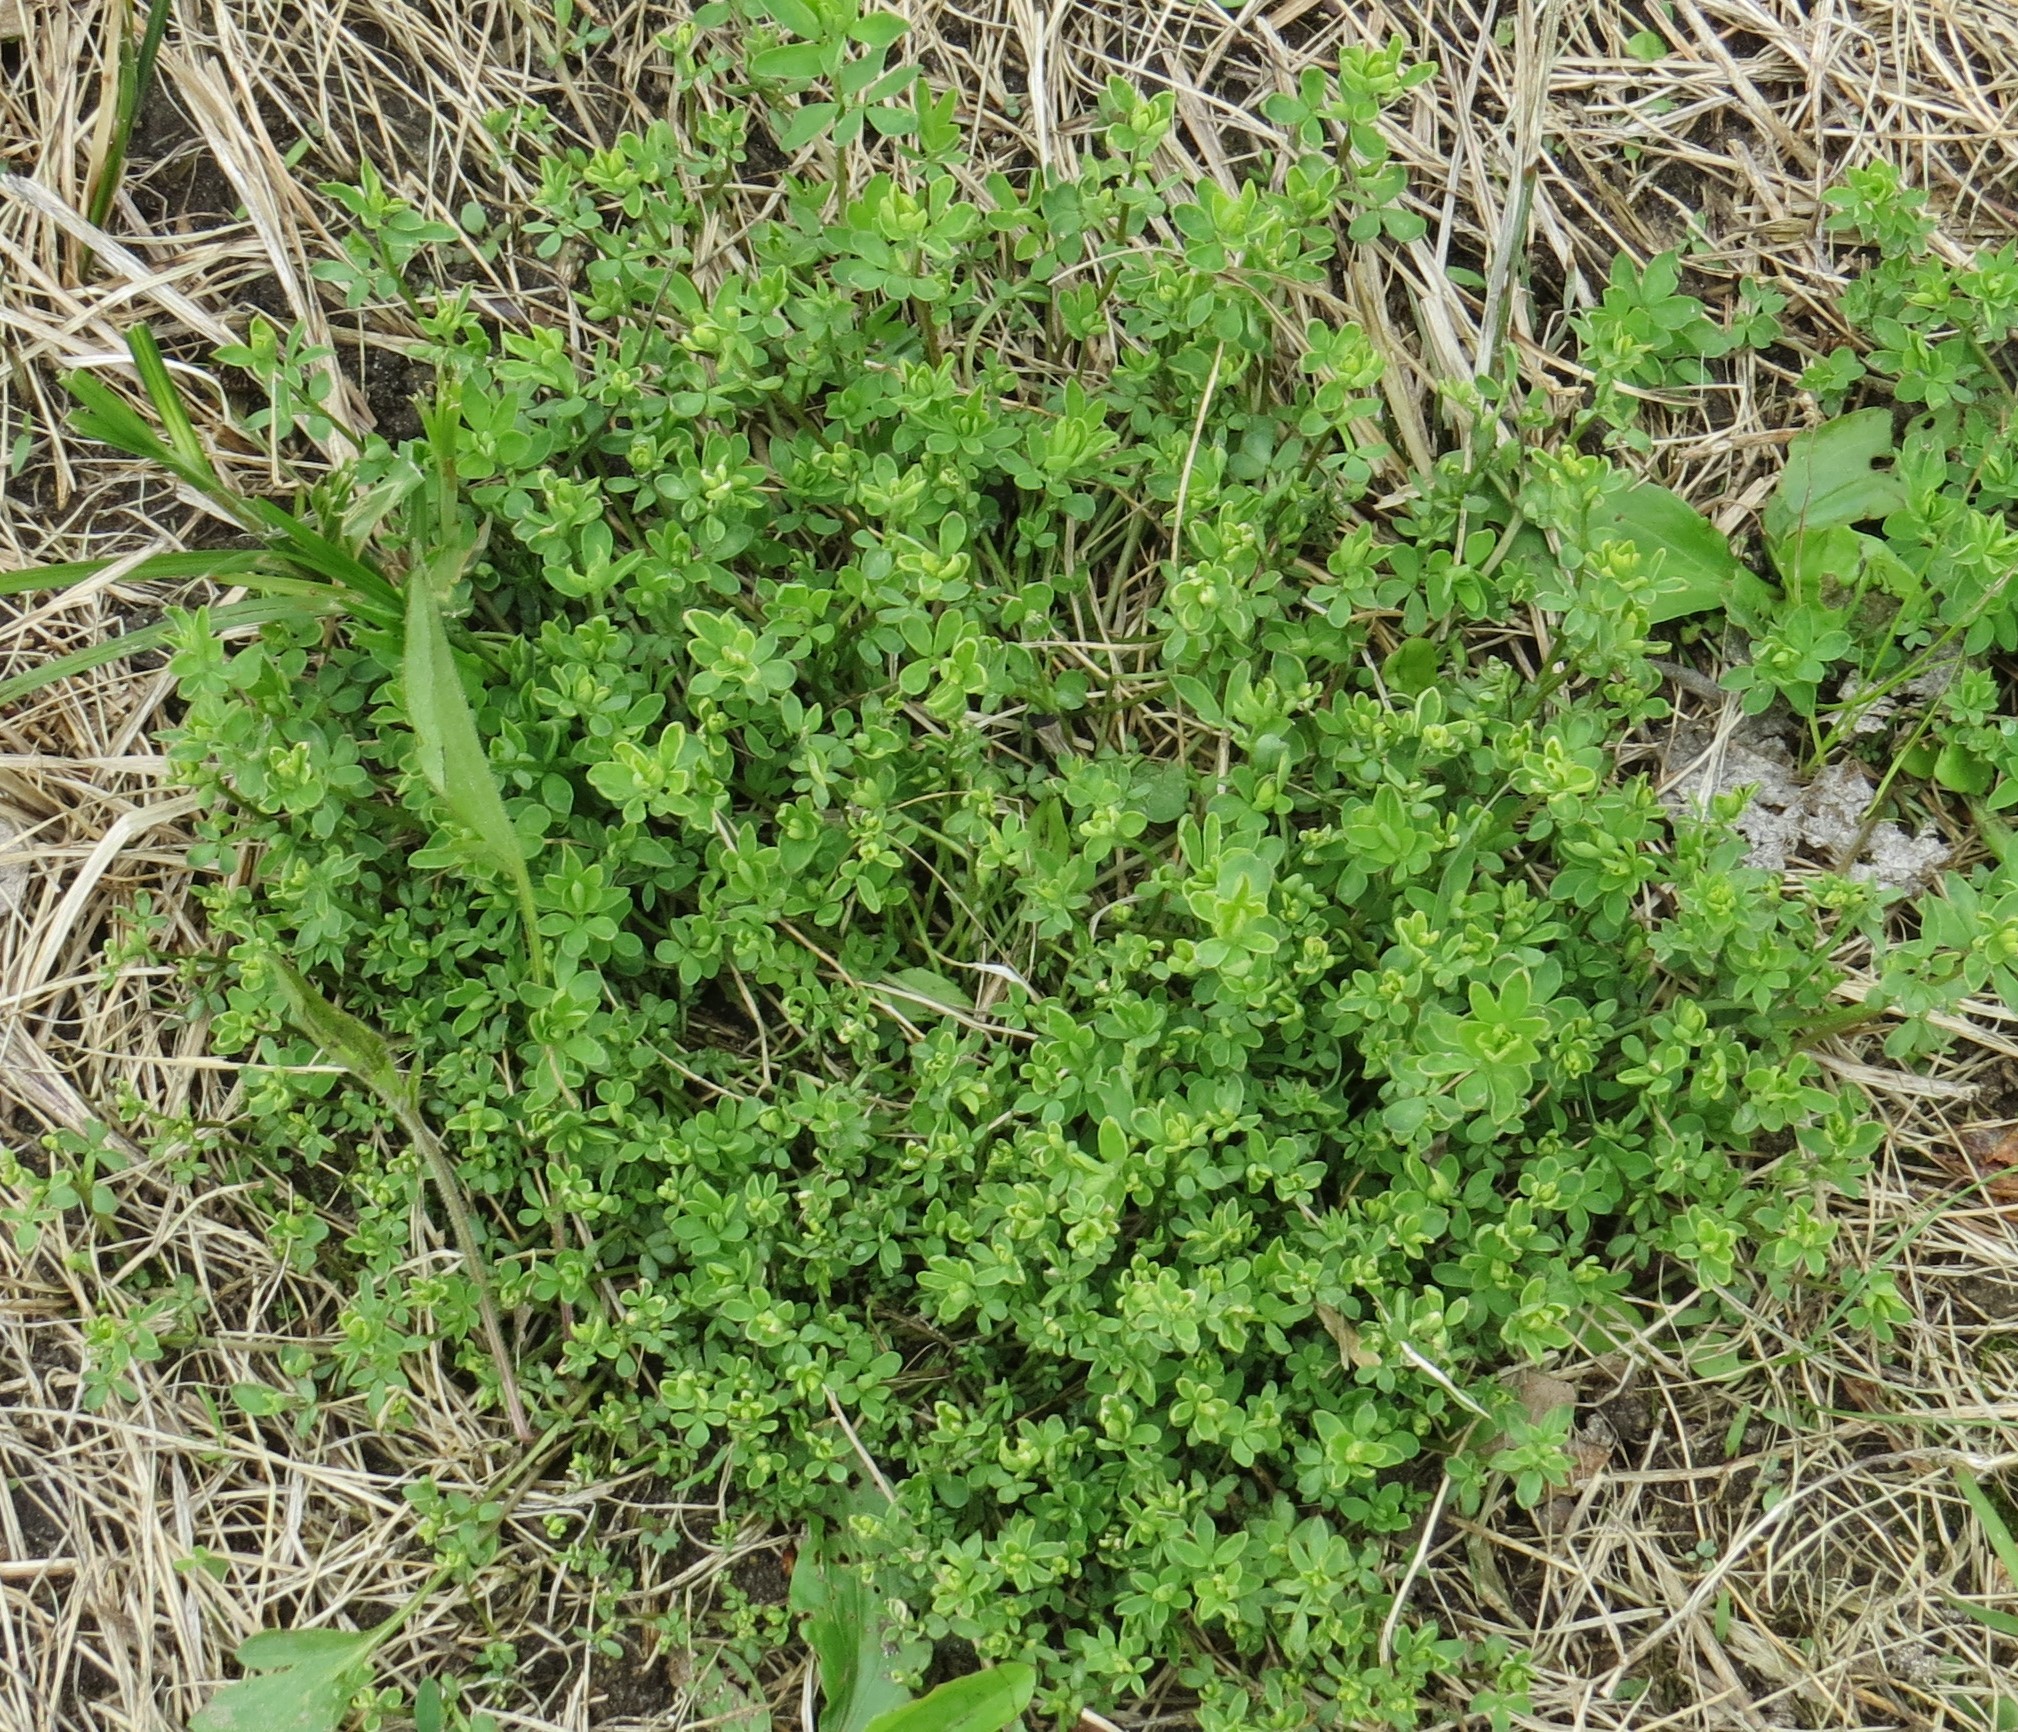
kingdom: Plantae
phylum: Tracheophyta
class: Magnoliopsida
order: Fabales
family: Fabaceae
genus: Lotus
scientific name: Lotus corniculatus
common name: Common bird's-foot-trefoil
